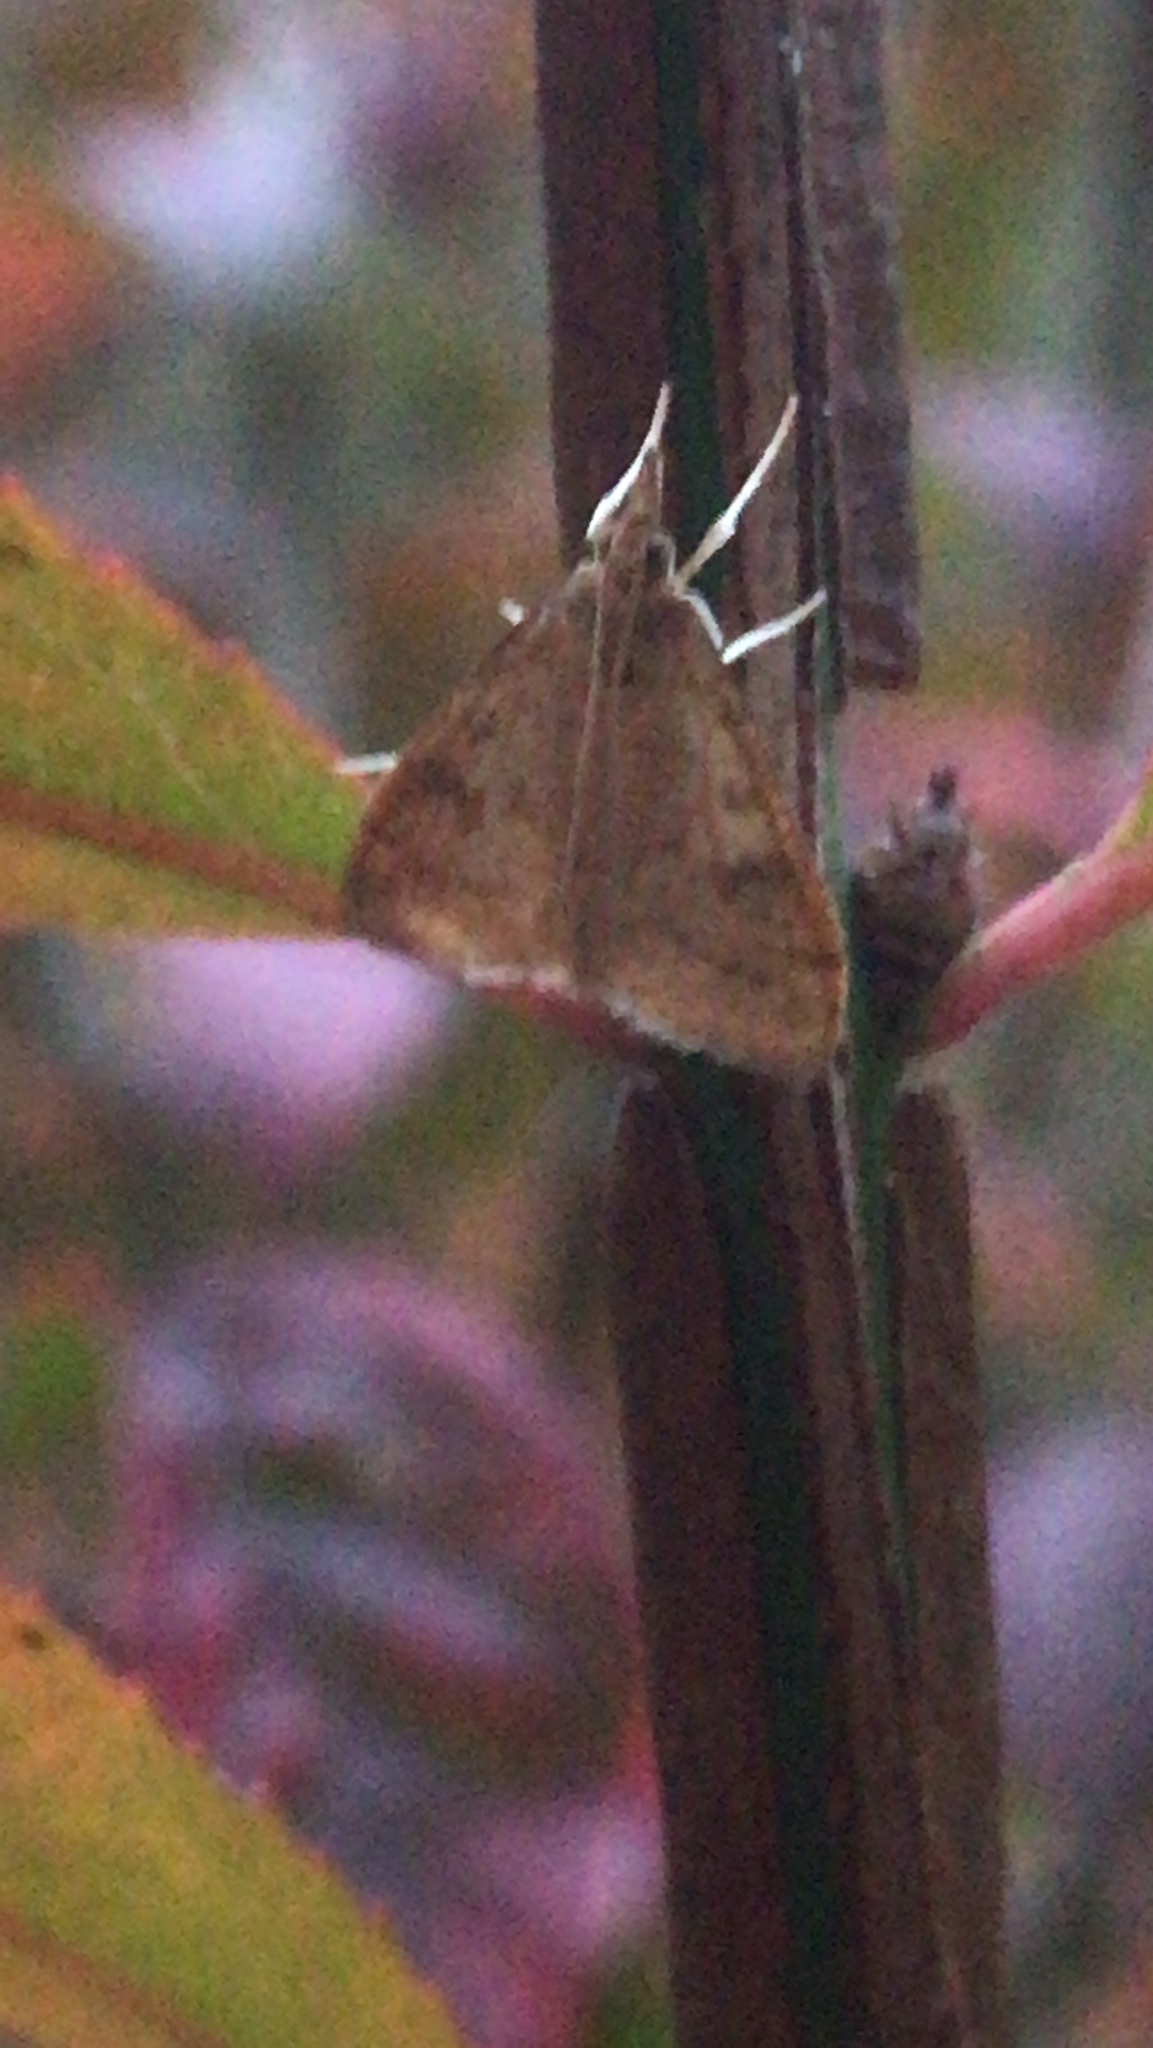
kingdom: Animalia
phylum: Arthropoda
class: Insecta
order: Lepidoptera
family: Crambidae
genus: Udea
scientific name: Udea rubigalis
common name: Celery leaftier moth
